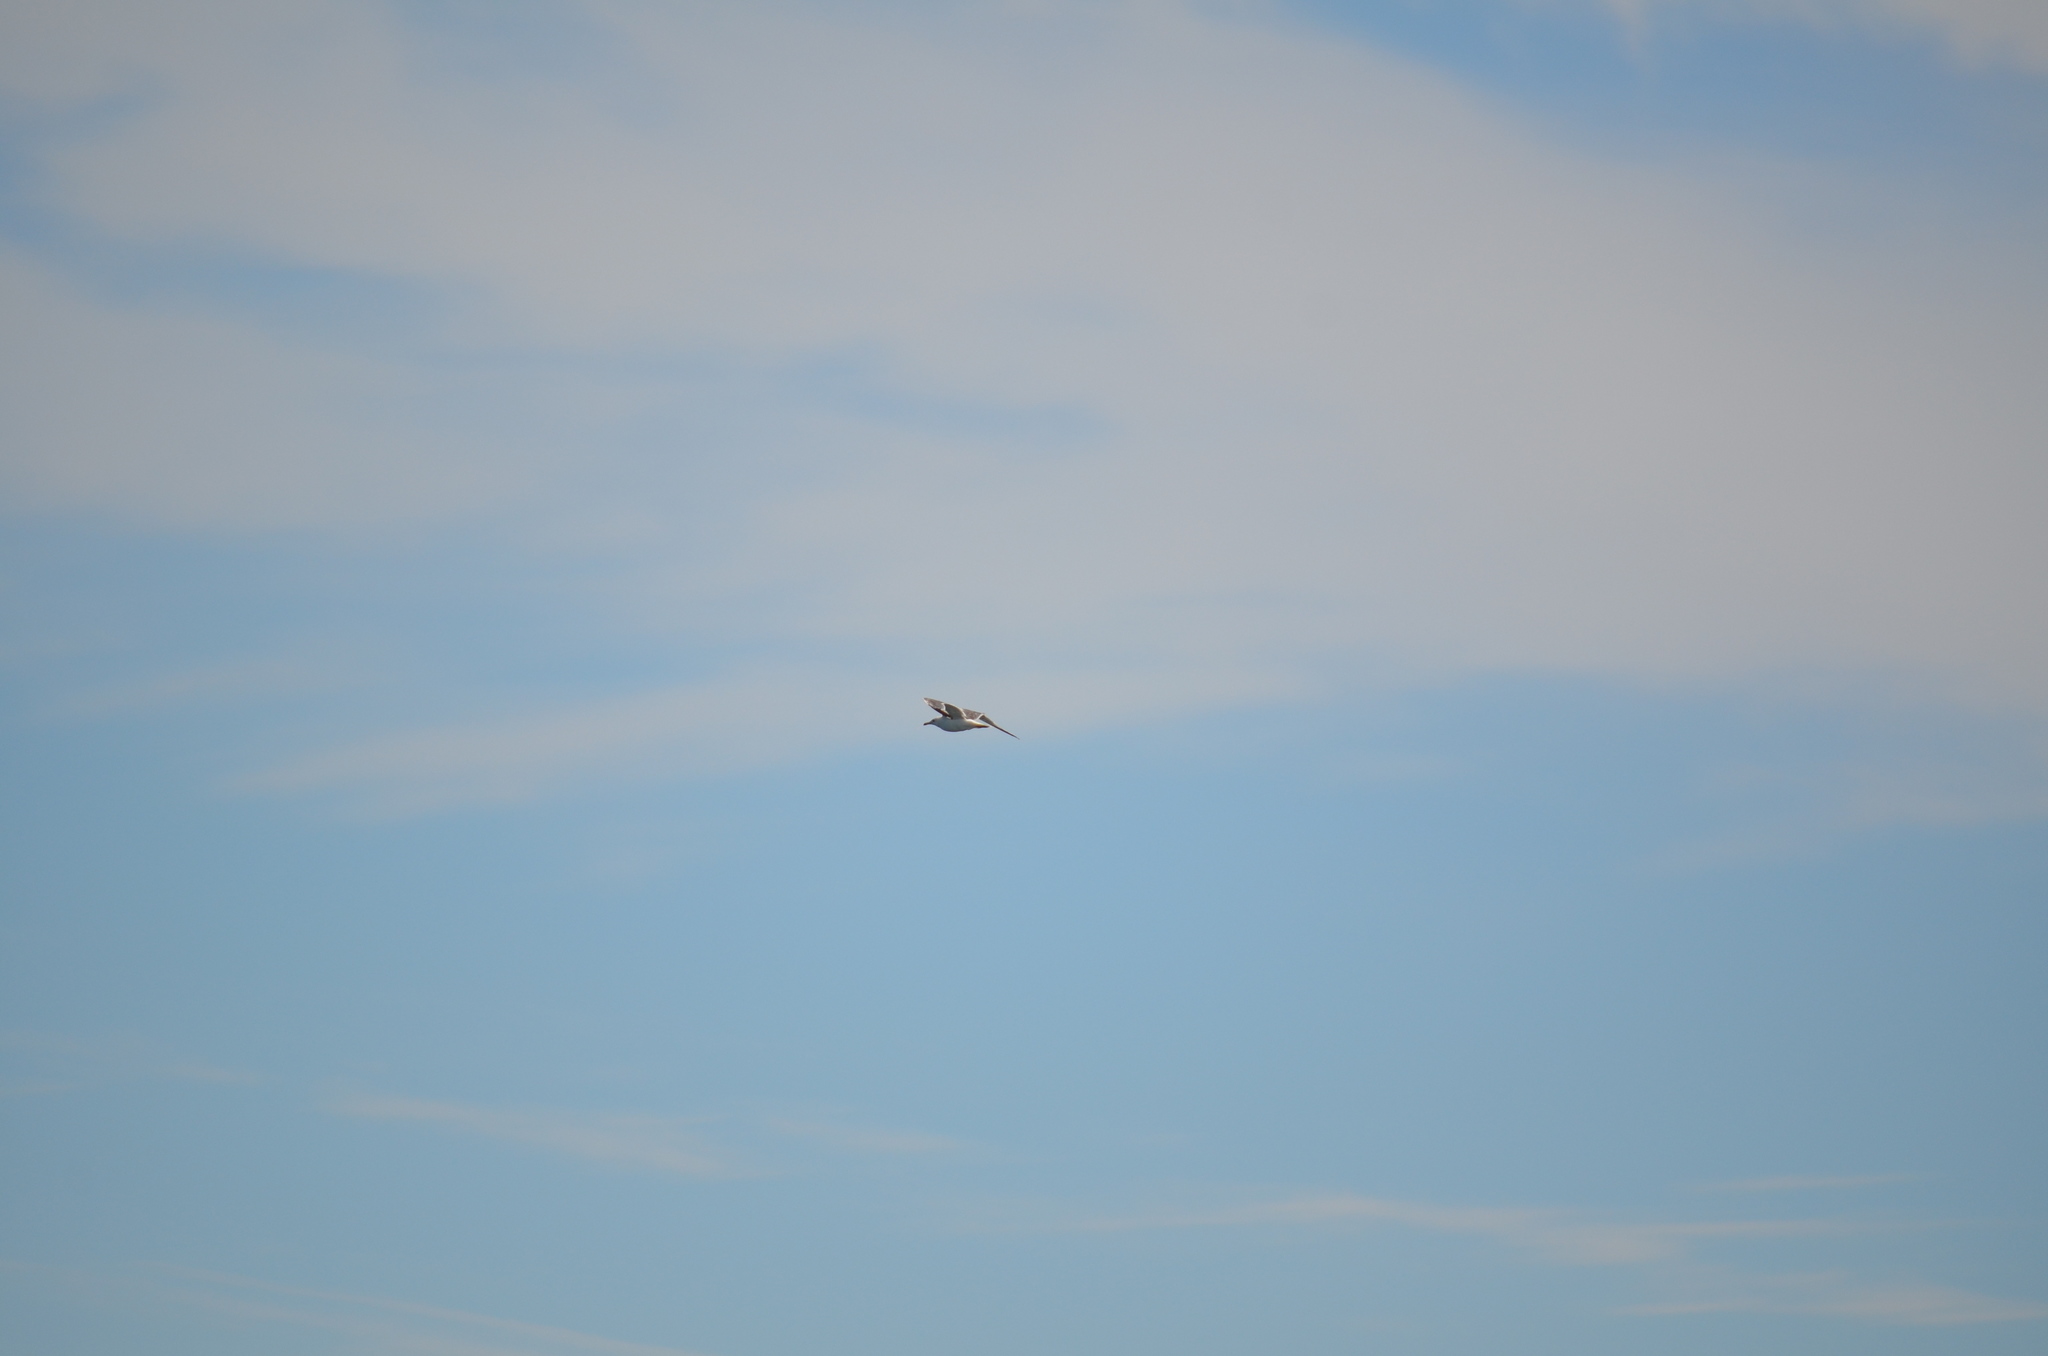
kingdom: Animalia
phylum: Chordata
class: Aves
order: Charadriiformes
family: Laridae
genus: Larus
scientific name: Larus glaucescens
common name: Glaucous-winged gull
